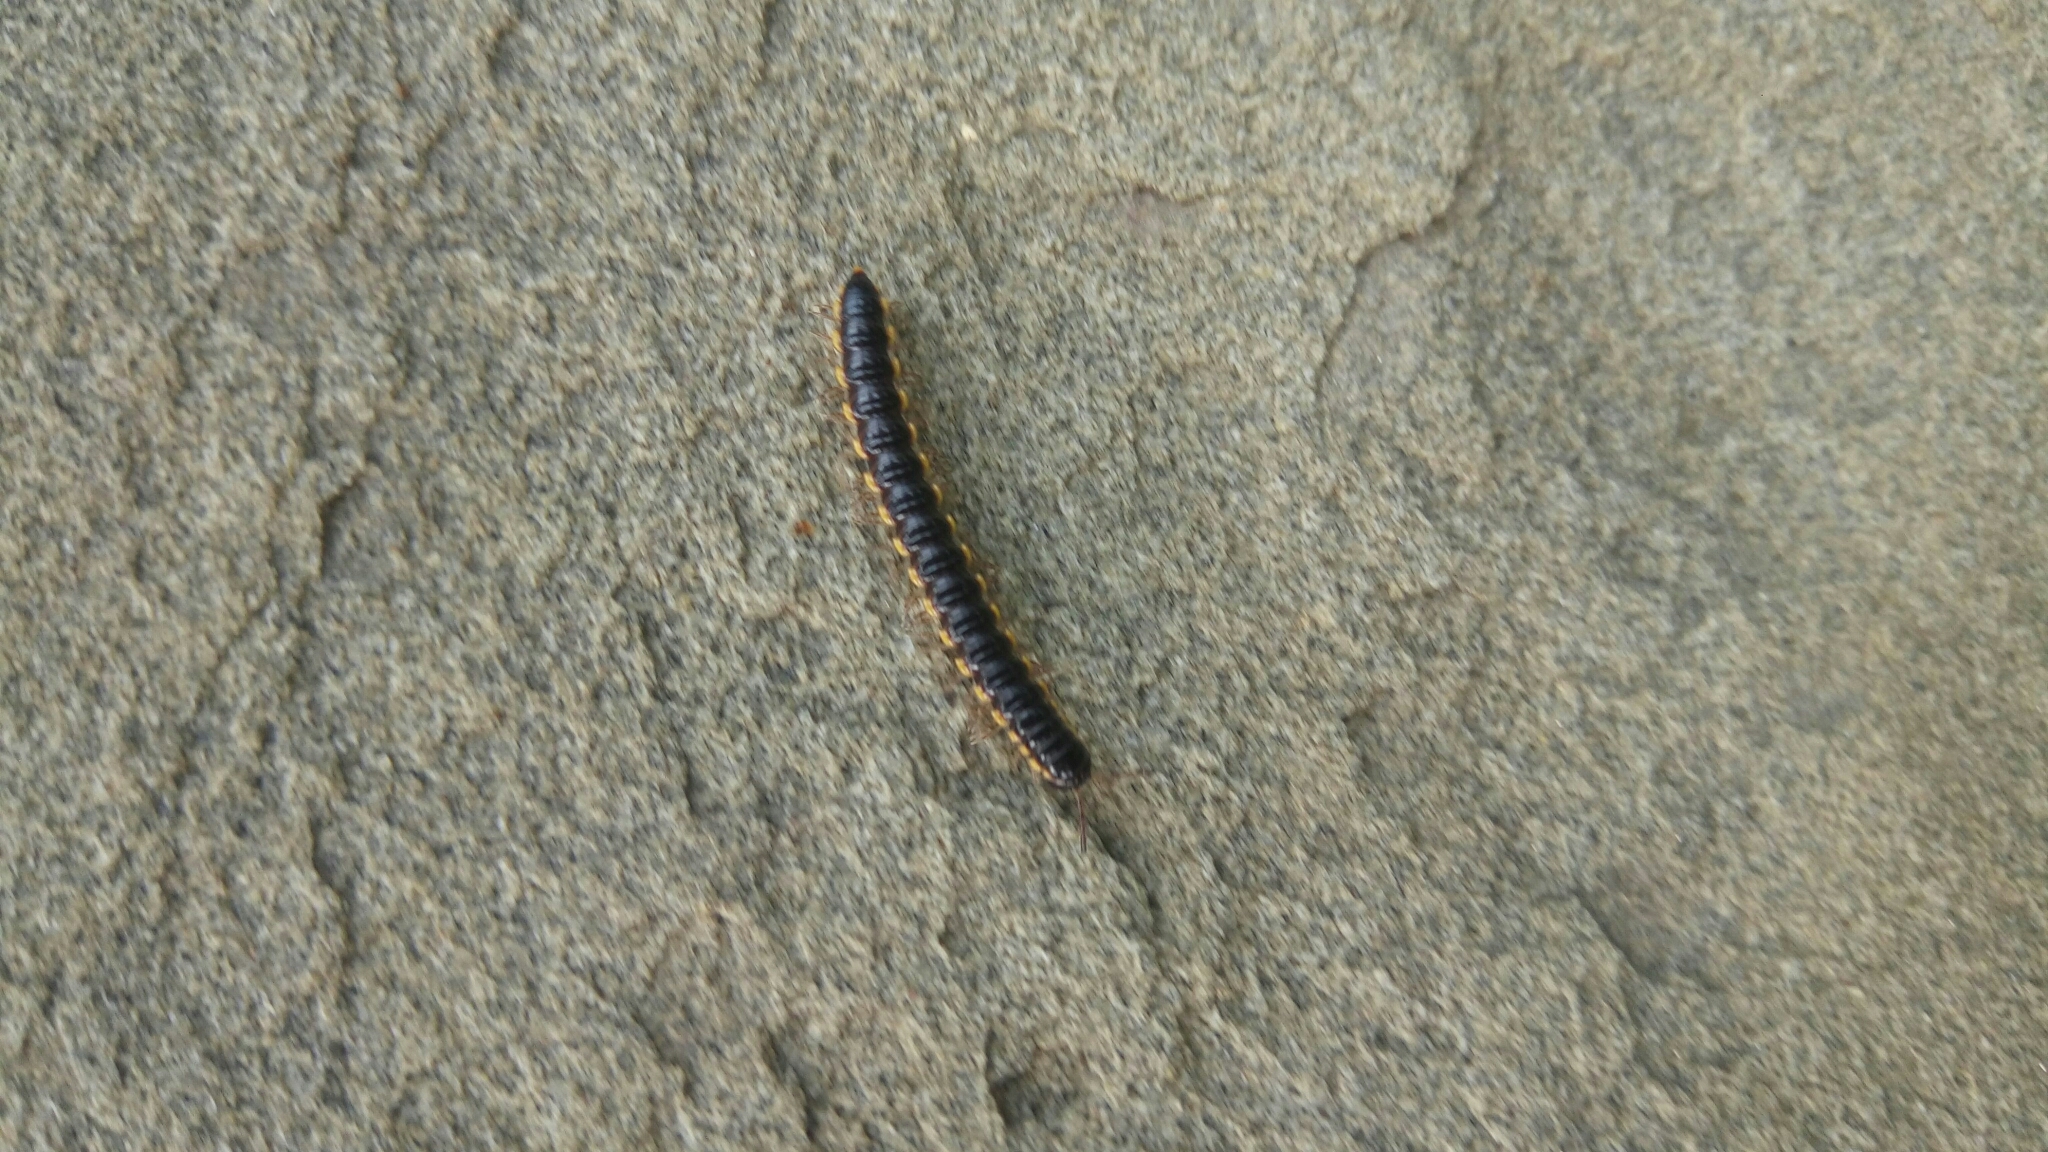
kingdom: Animalia
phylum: Arthropoda
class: Diplopoda
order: Polydesmida
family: Paradoxosomatidae
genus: Orthomorpha
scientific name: Orthomorpha coarctata
